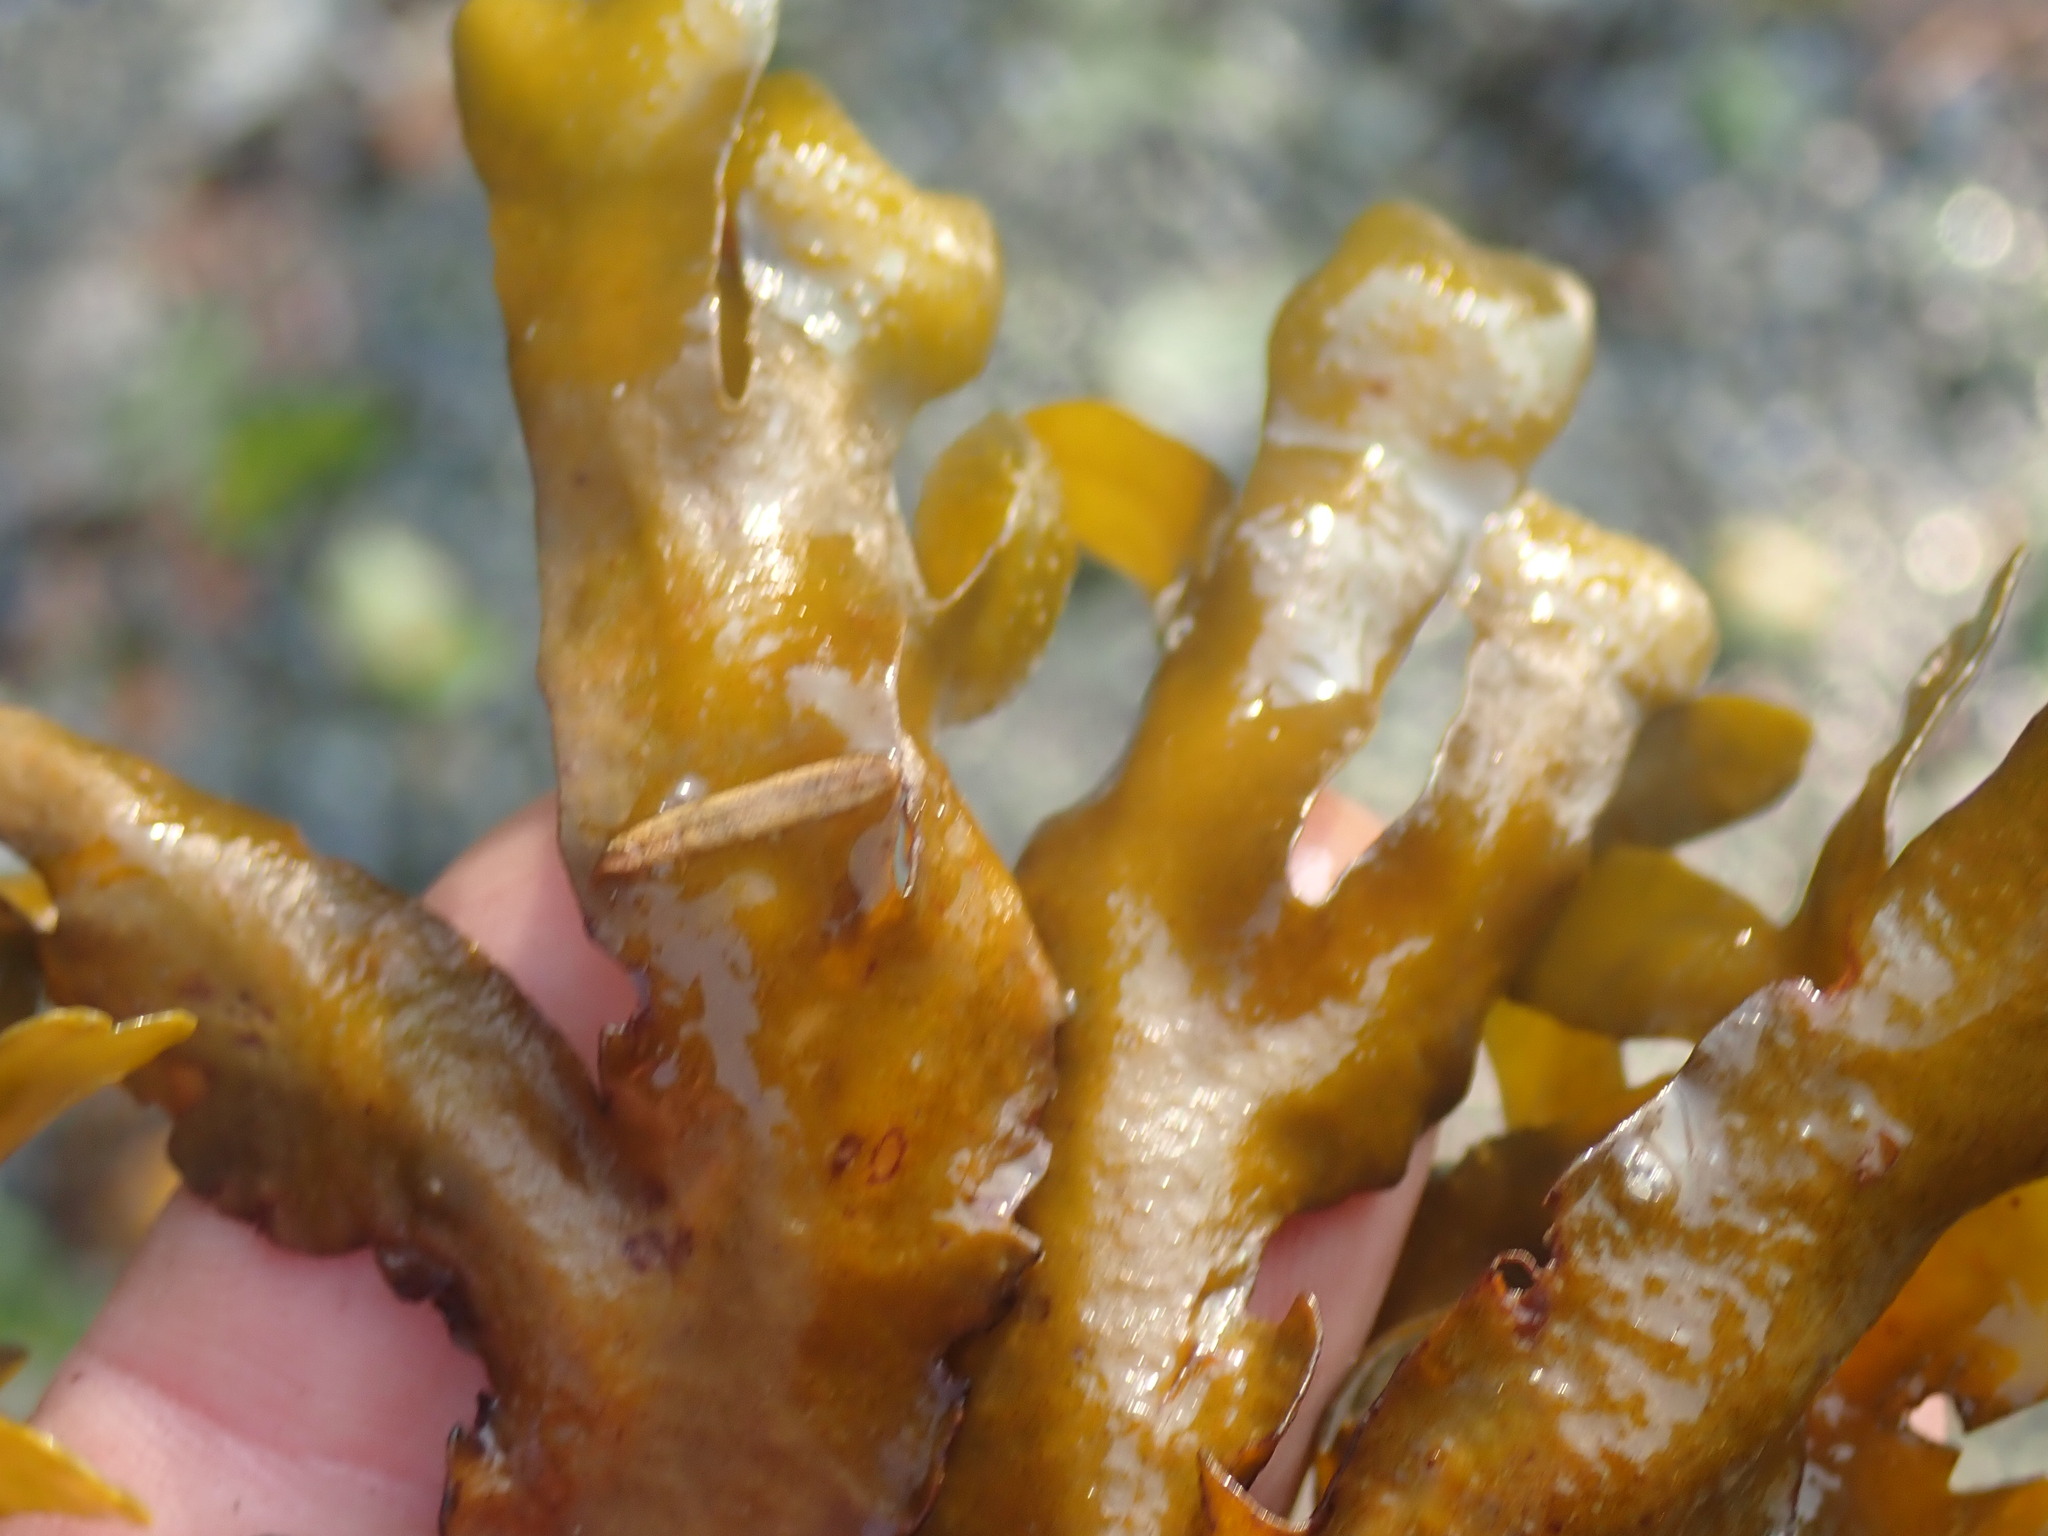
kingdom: Chromista
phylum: Ochrophyta
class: Phaeophyceae
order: Fucales
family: Fucaceae
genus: Fucus
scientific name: Fucus distichus
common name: Rockweed
